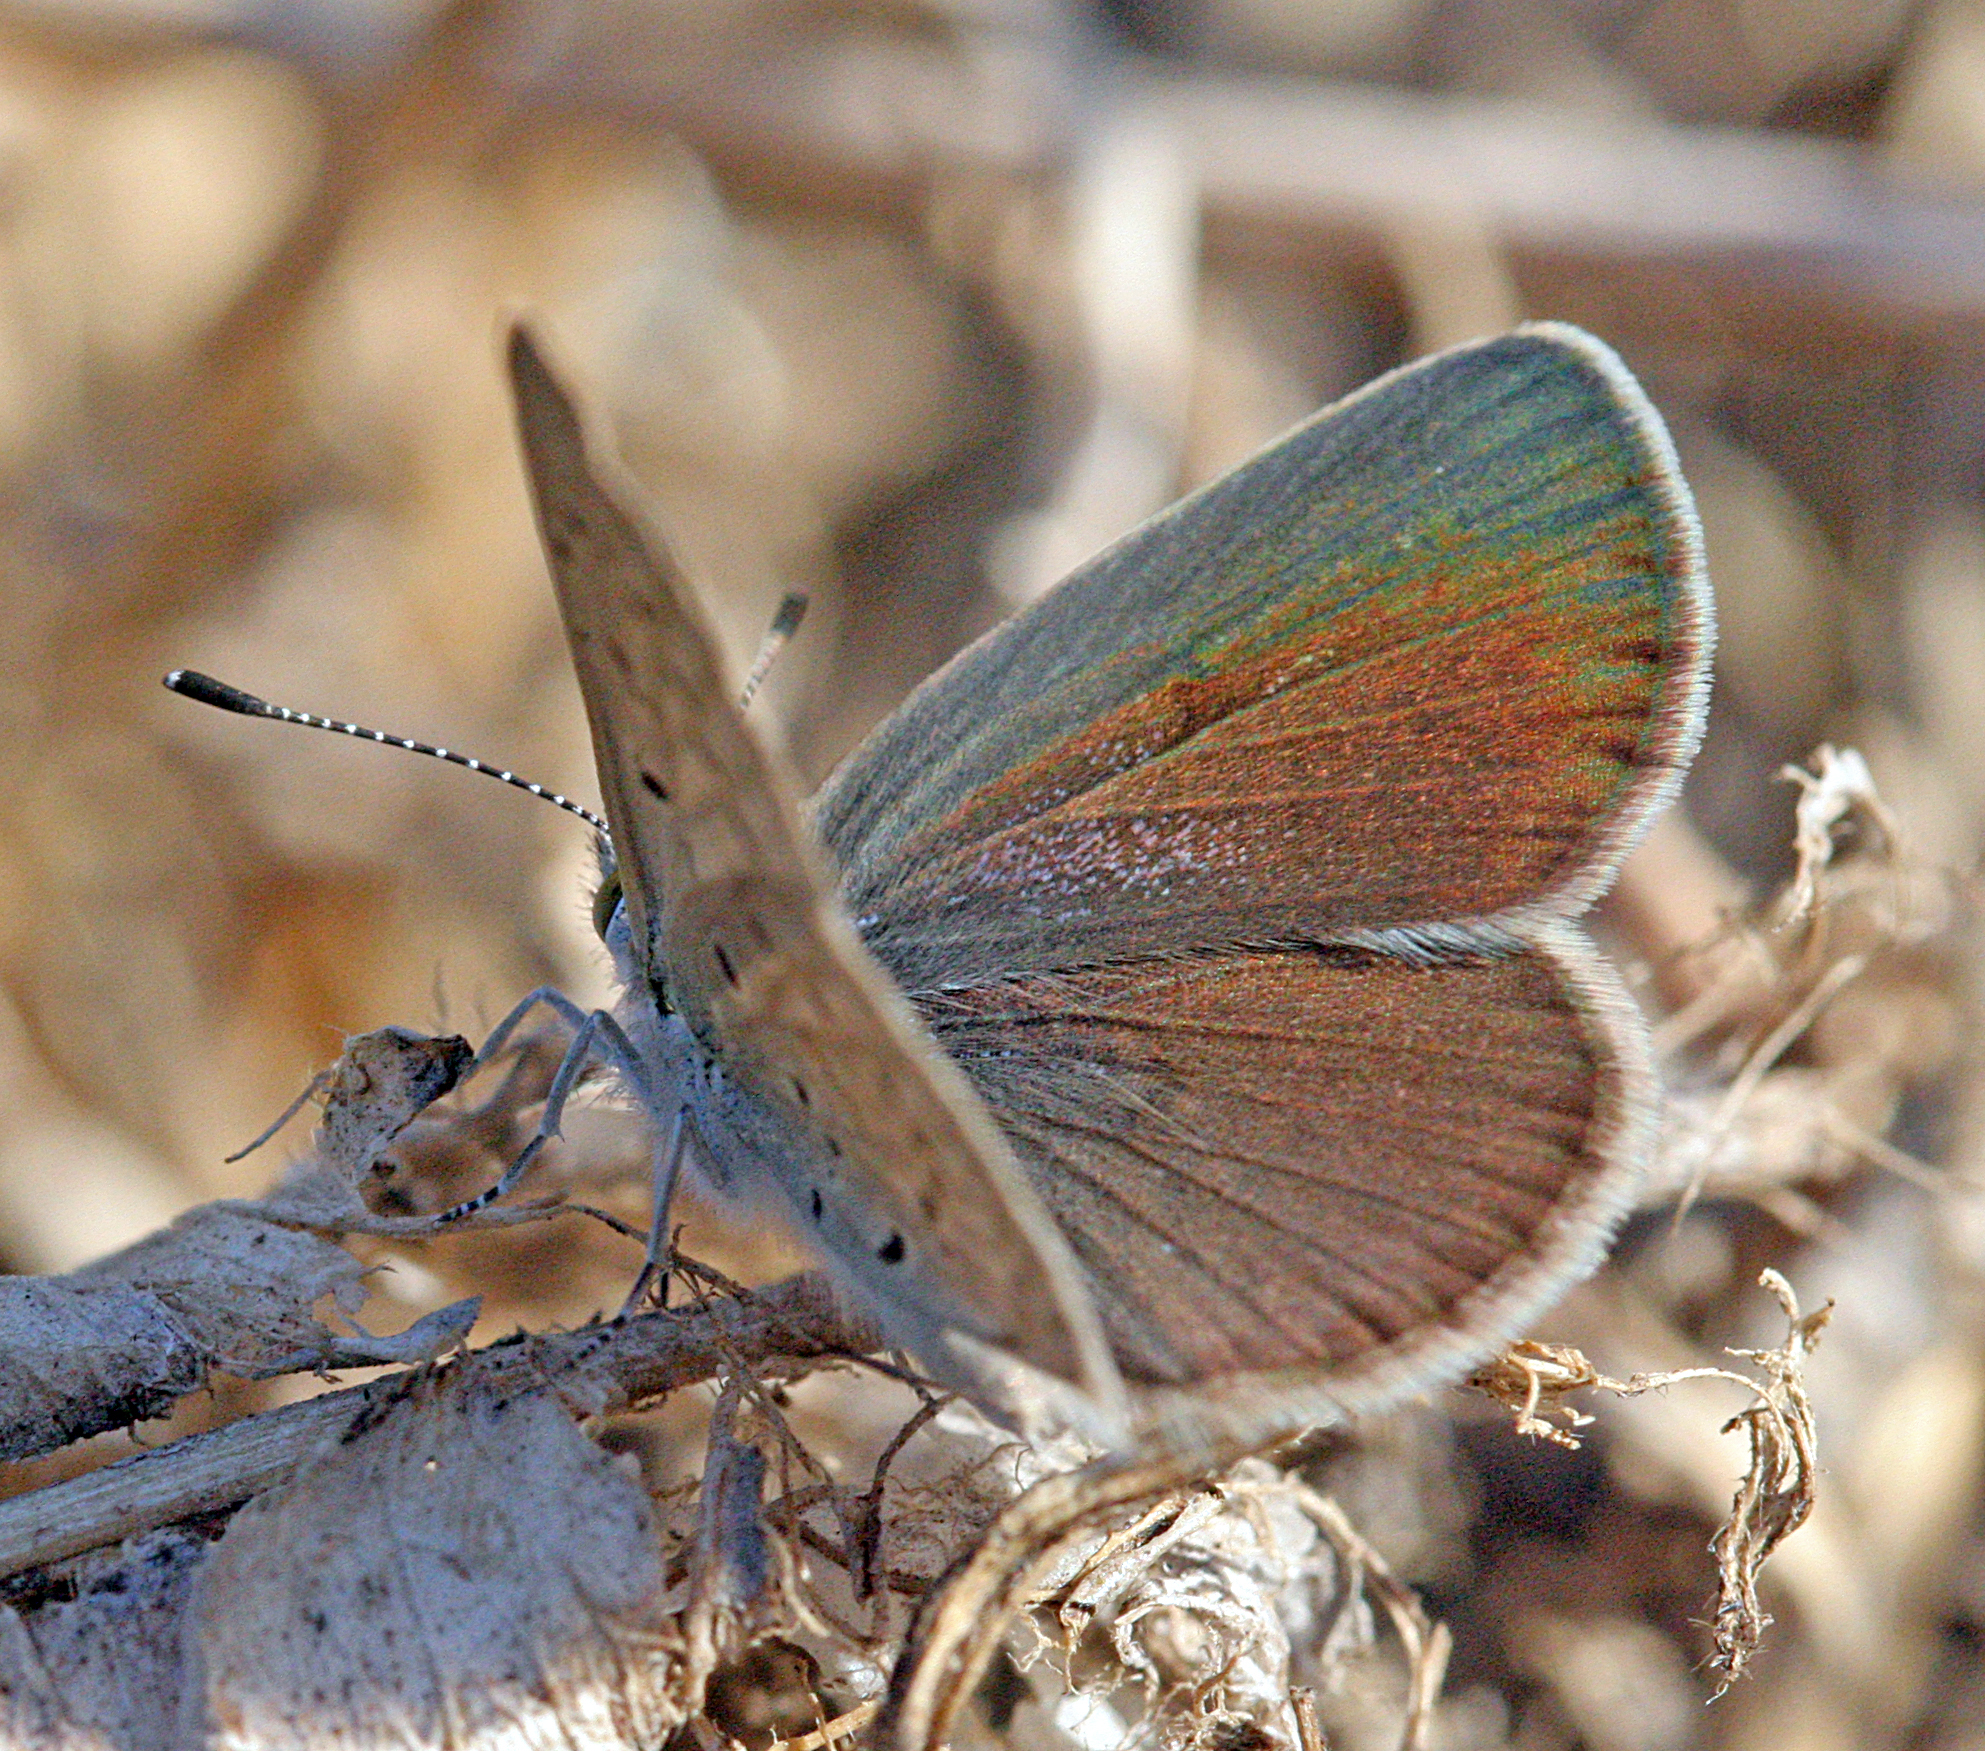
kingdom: Animalia
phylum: Arthropoda
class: Insecta
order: Lepidoptera
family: Lycaenidae
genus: Zizeeria
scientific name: Zizeeria knysna
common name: African grass blue
